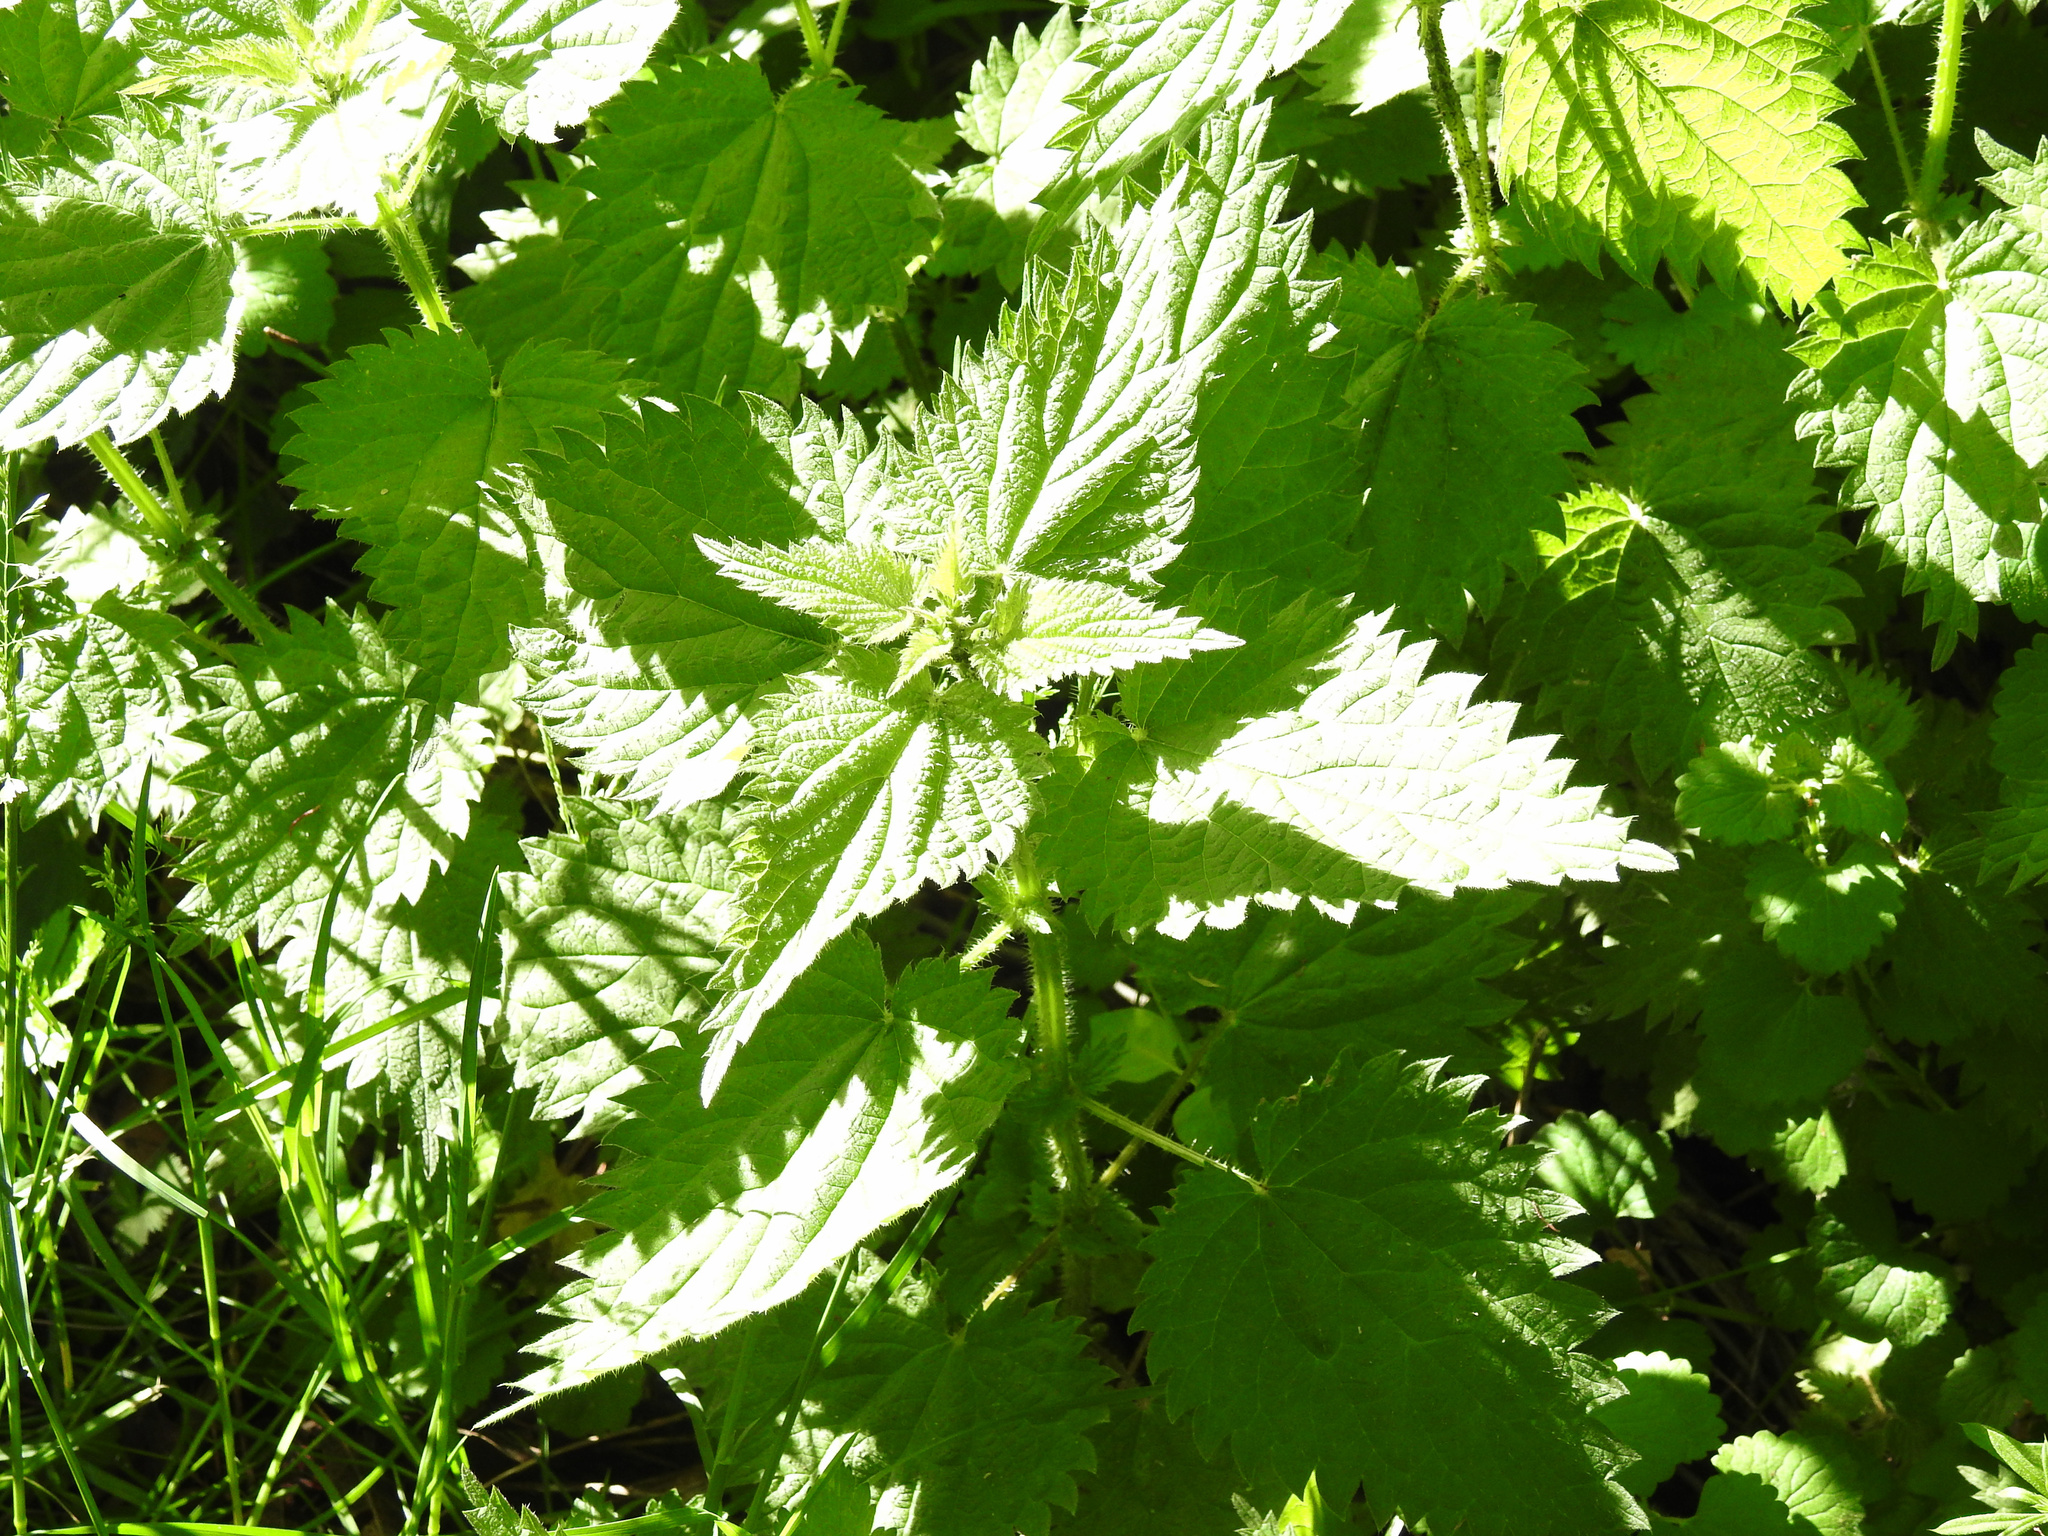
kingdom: Plantae
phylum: Tracheophyta
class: Magnoliopsida
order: Rosales
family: Urticaceae
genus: Urtica
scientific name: Urtica dioica
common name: Common nettle
